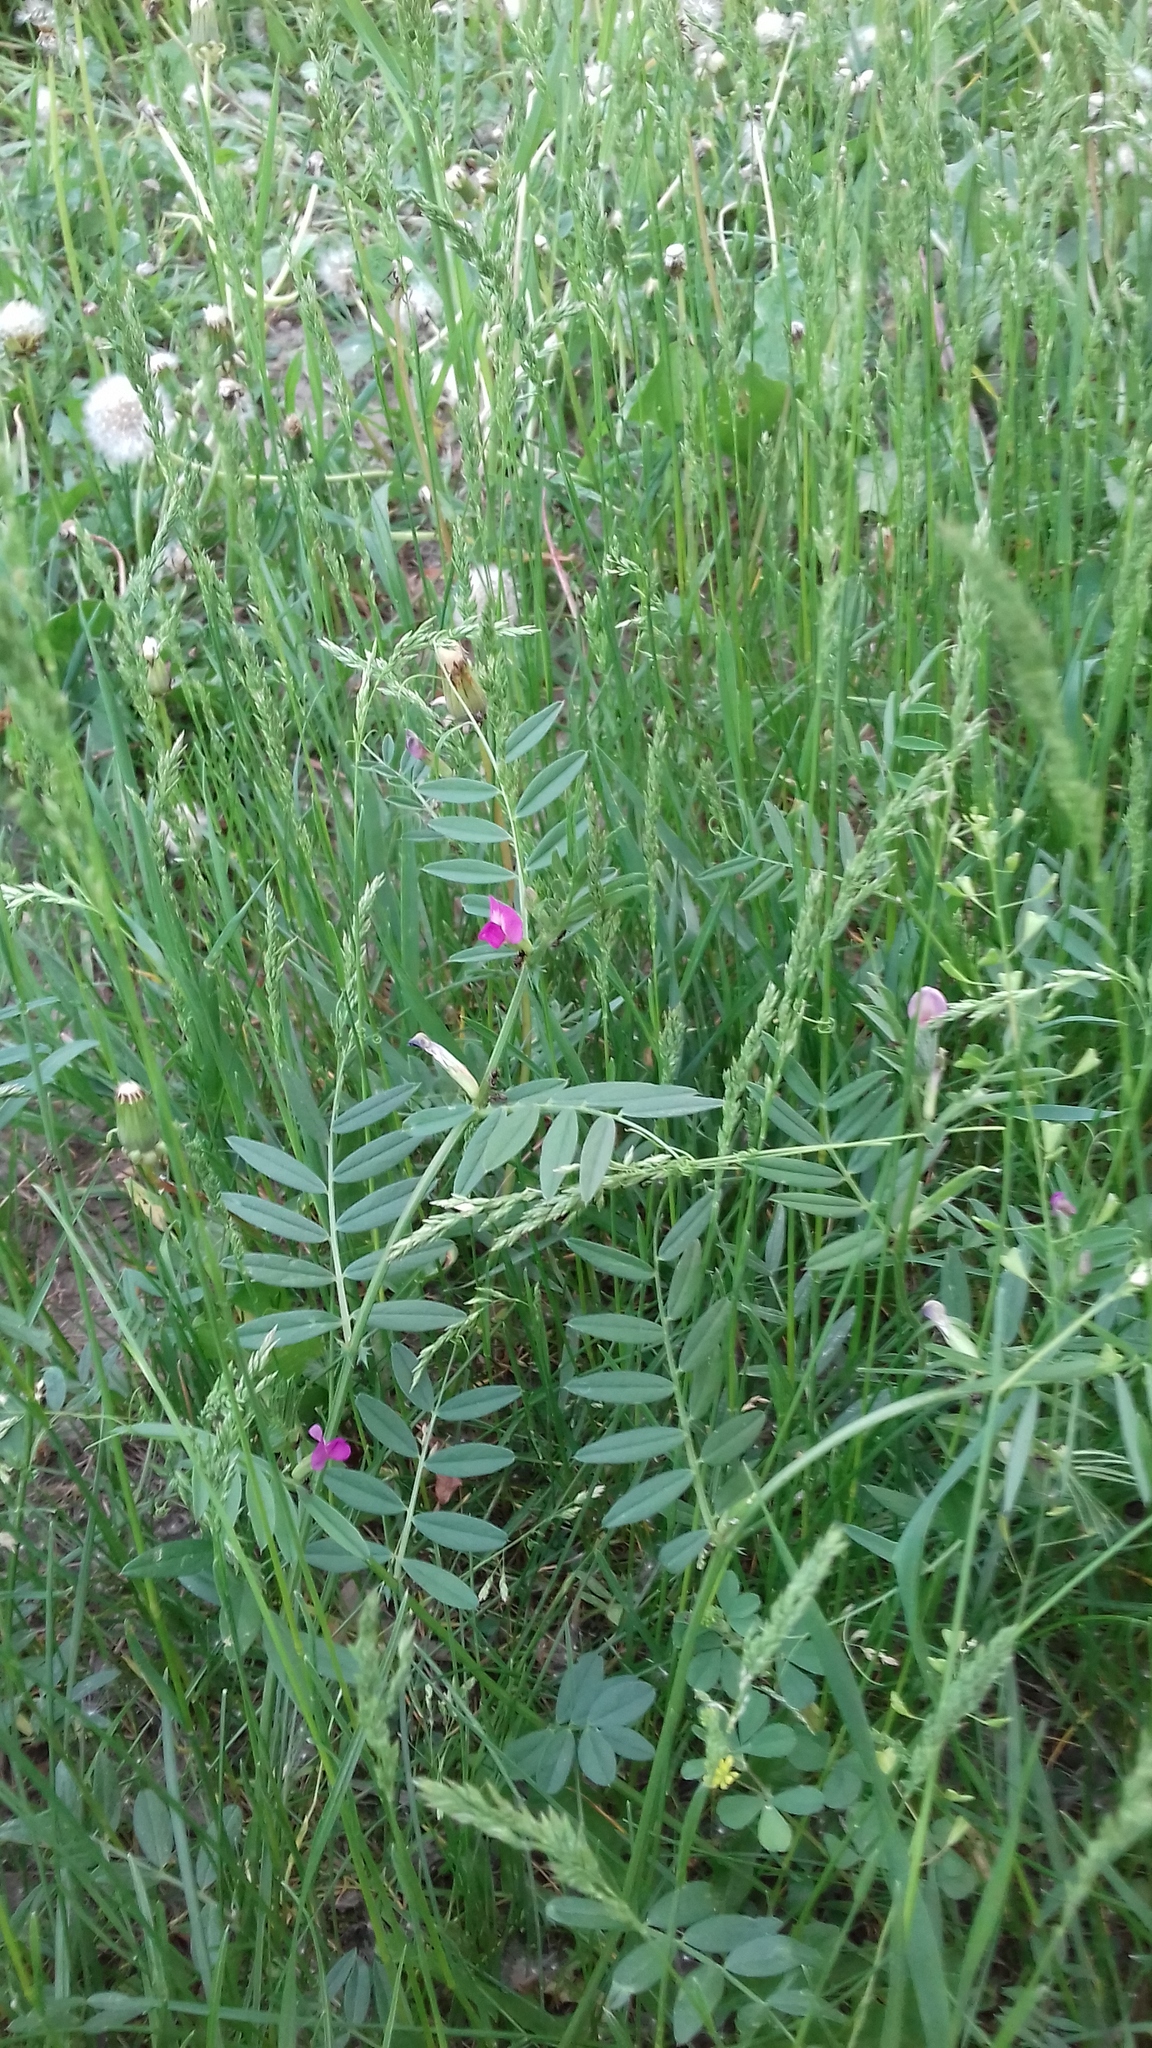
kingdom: Plantae
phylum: Tracheophyta
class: Magnoliopsida
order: Fabales
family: Fabaceae
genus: Vicia
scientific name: Vicia sativa
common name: Garden vetch
